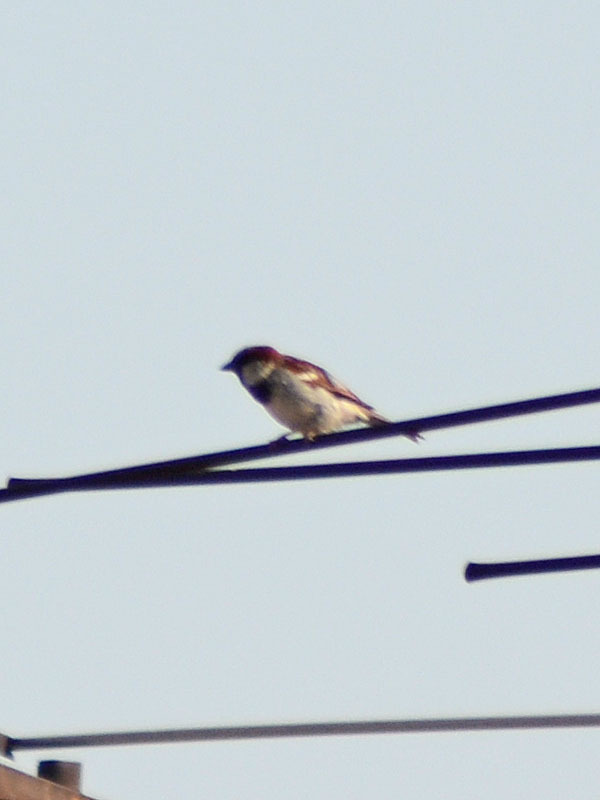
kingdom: Animalia
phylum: Chordata
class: Aves
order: Passeriformes
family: Passeridae
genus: Passer
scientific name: Passer domesticus
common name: House sparrow
